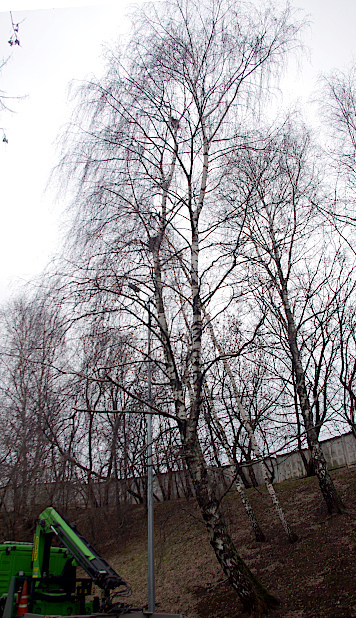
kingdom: Animalia
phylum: Chordata
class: Aves
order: Passeriformes
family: Corvidae
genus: Corvus
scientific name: Corvus cornix
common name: Hooded crow
